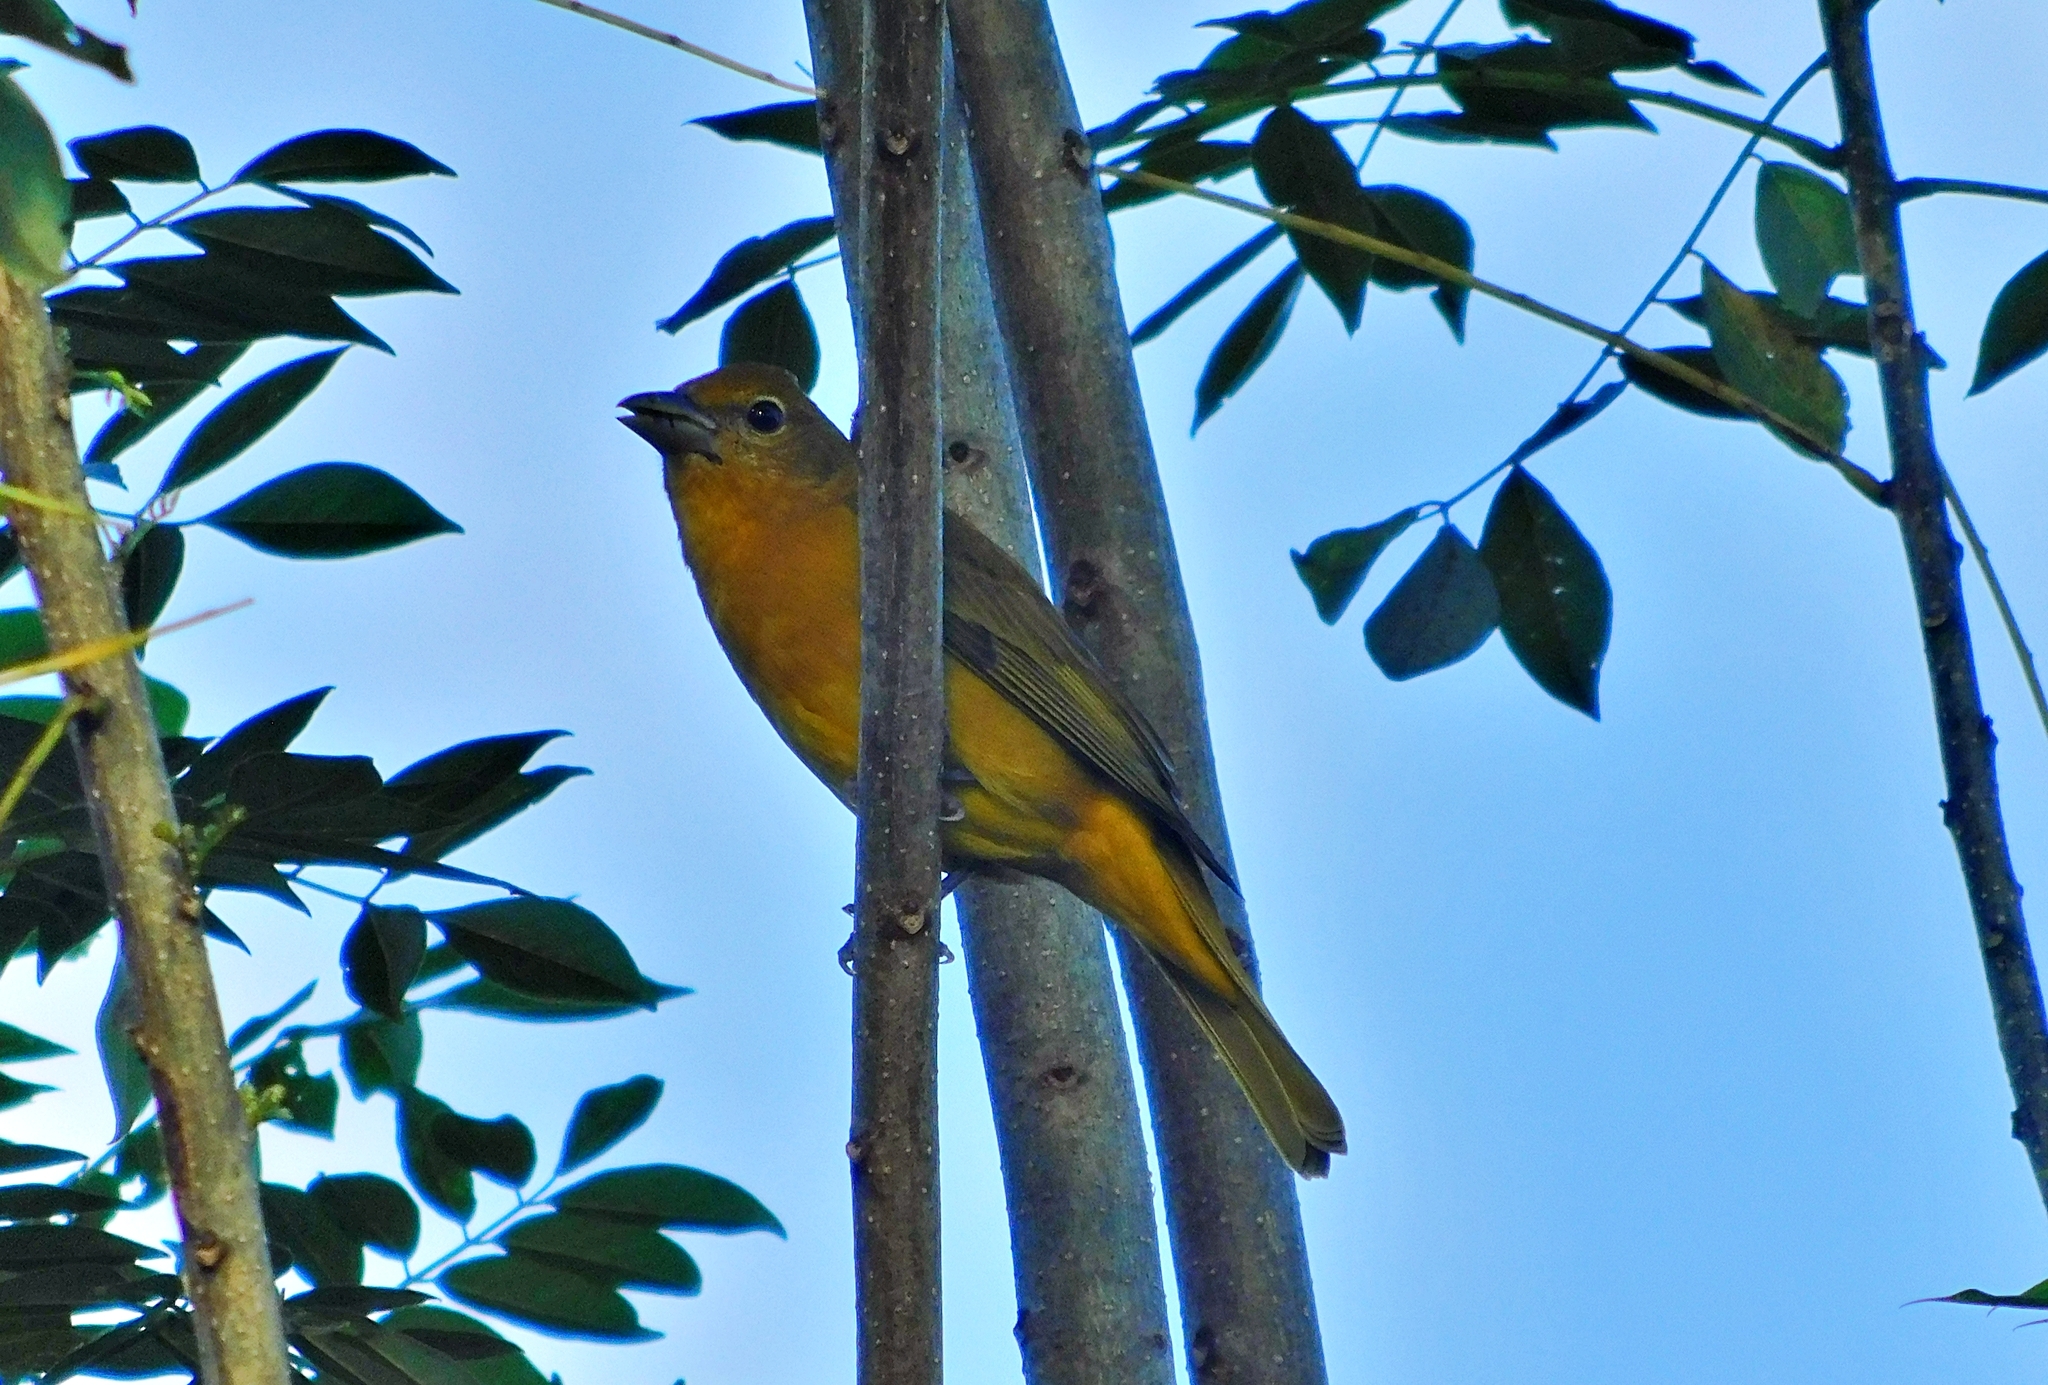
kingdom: Animalia
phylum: Chordata
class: Aves
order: Passeriformes
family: Cardinalidae
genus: Piranga
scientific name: Piranga rubra
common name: Summer tanager
